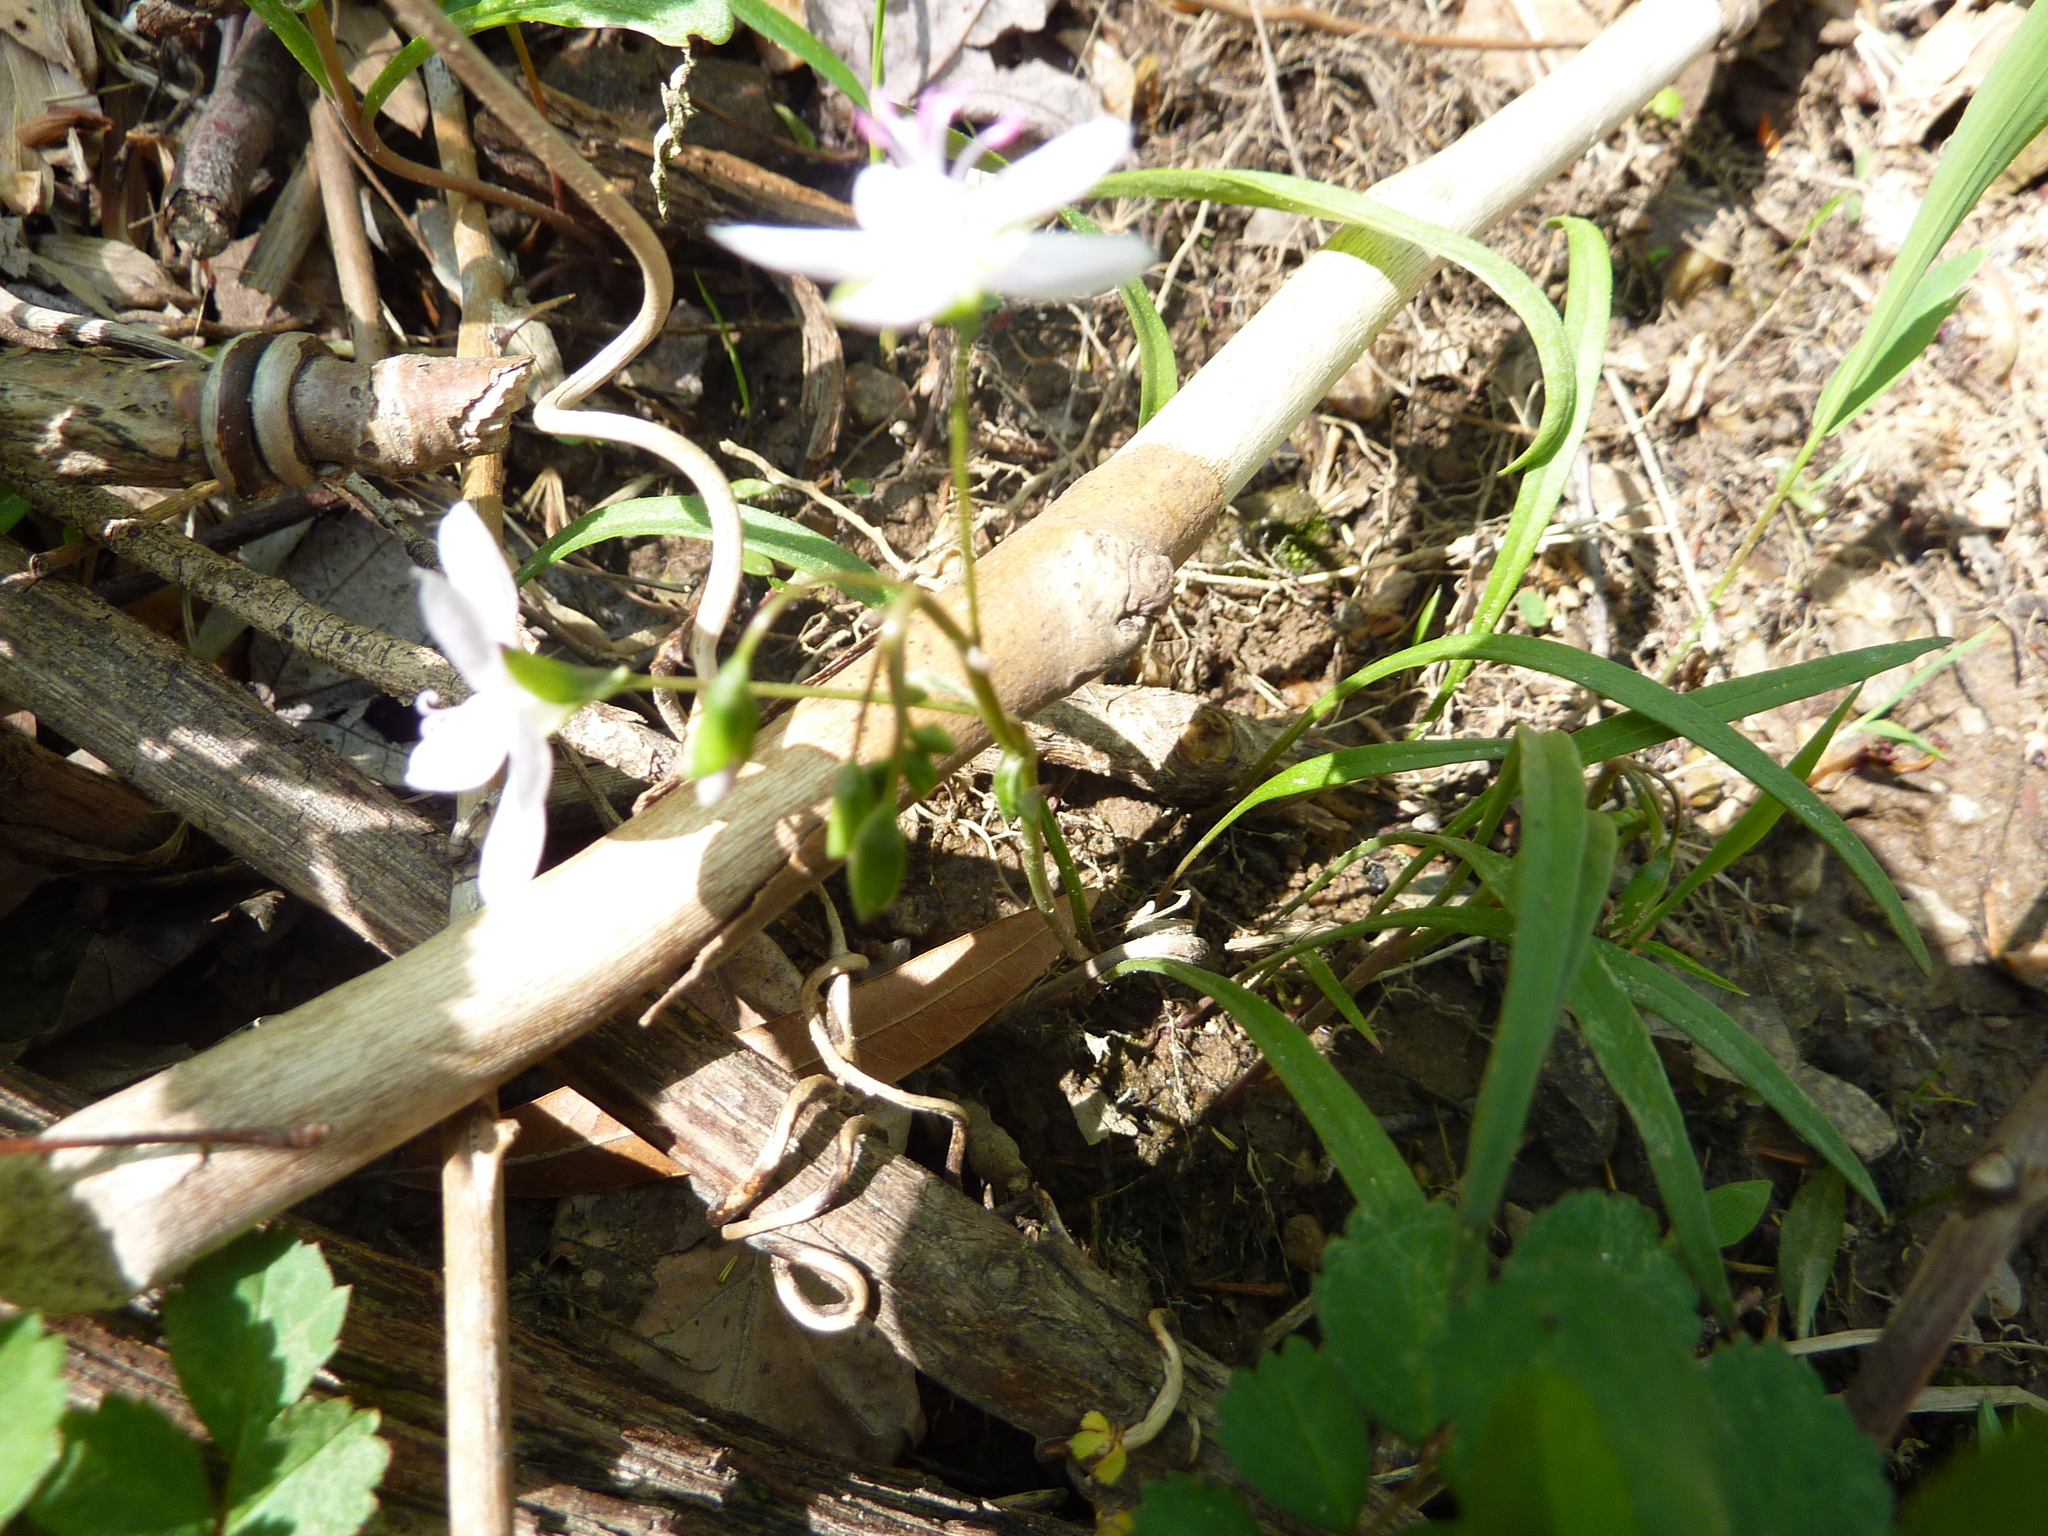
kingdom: Plantae
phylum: Tracheophyta
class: Magnoliopsida
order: Caryophyllales
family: Montiaceae
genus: Claytonia
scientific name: Claytonia virginica
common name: Virginia springbeauty
